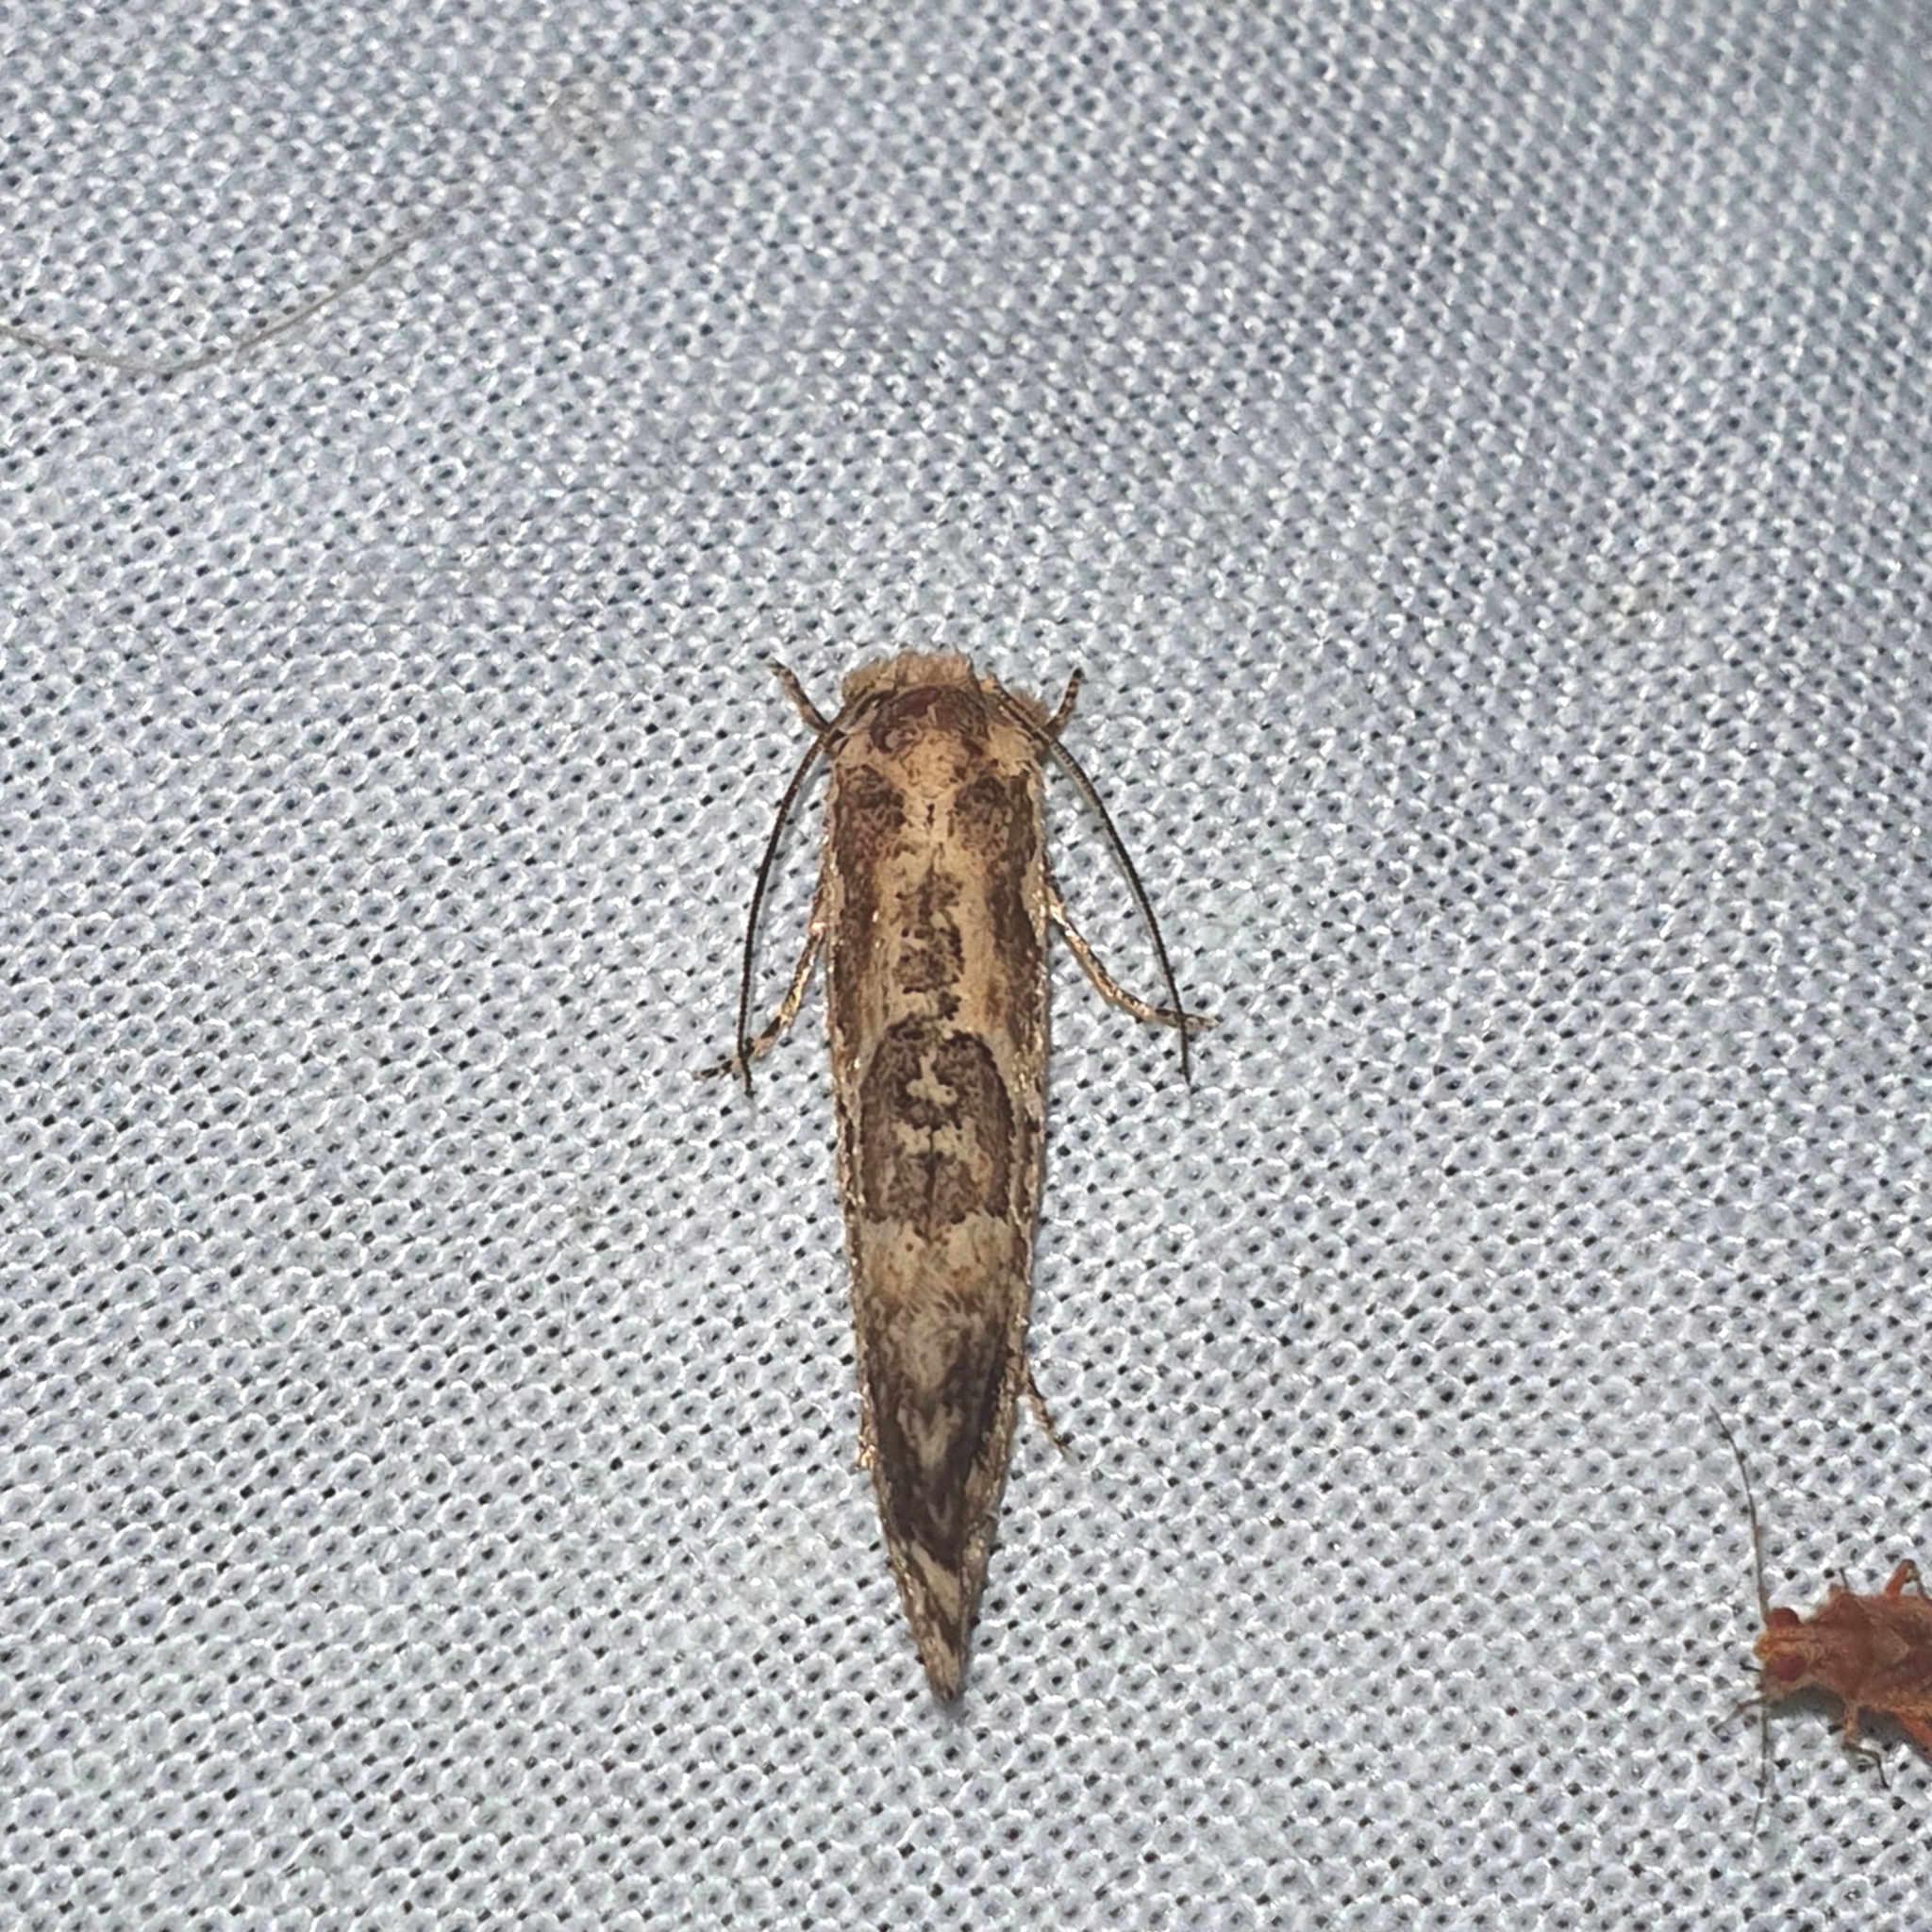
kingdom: Animalia
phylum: Arthropoda
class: Insecta
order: Lepidoptera
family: Tineidae
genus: Moerarchis
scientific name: Moerarchis inconcisella
